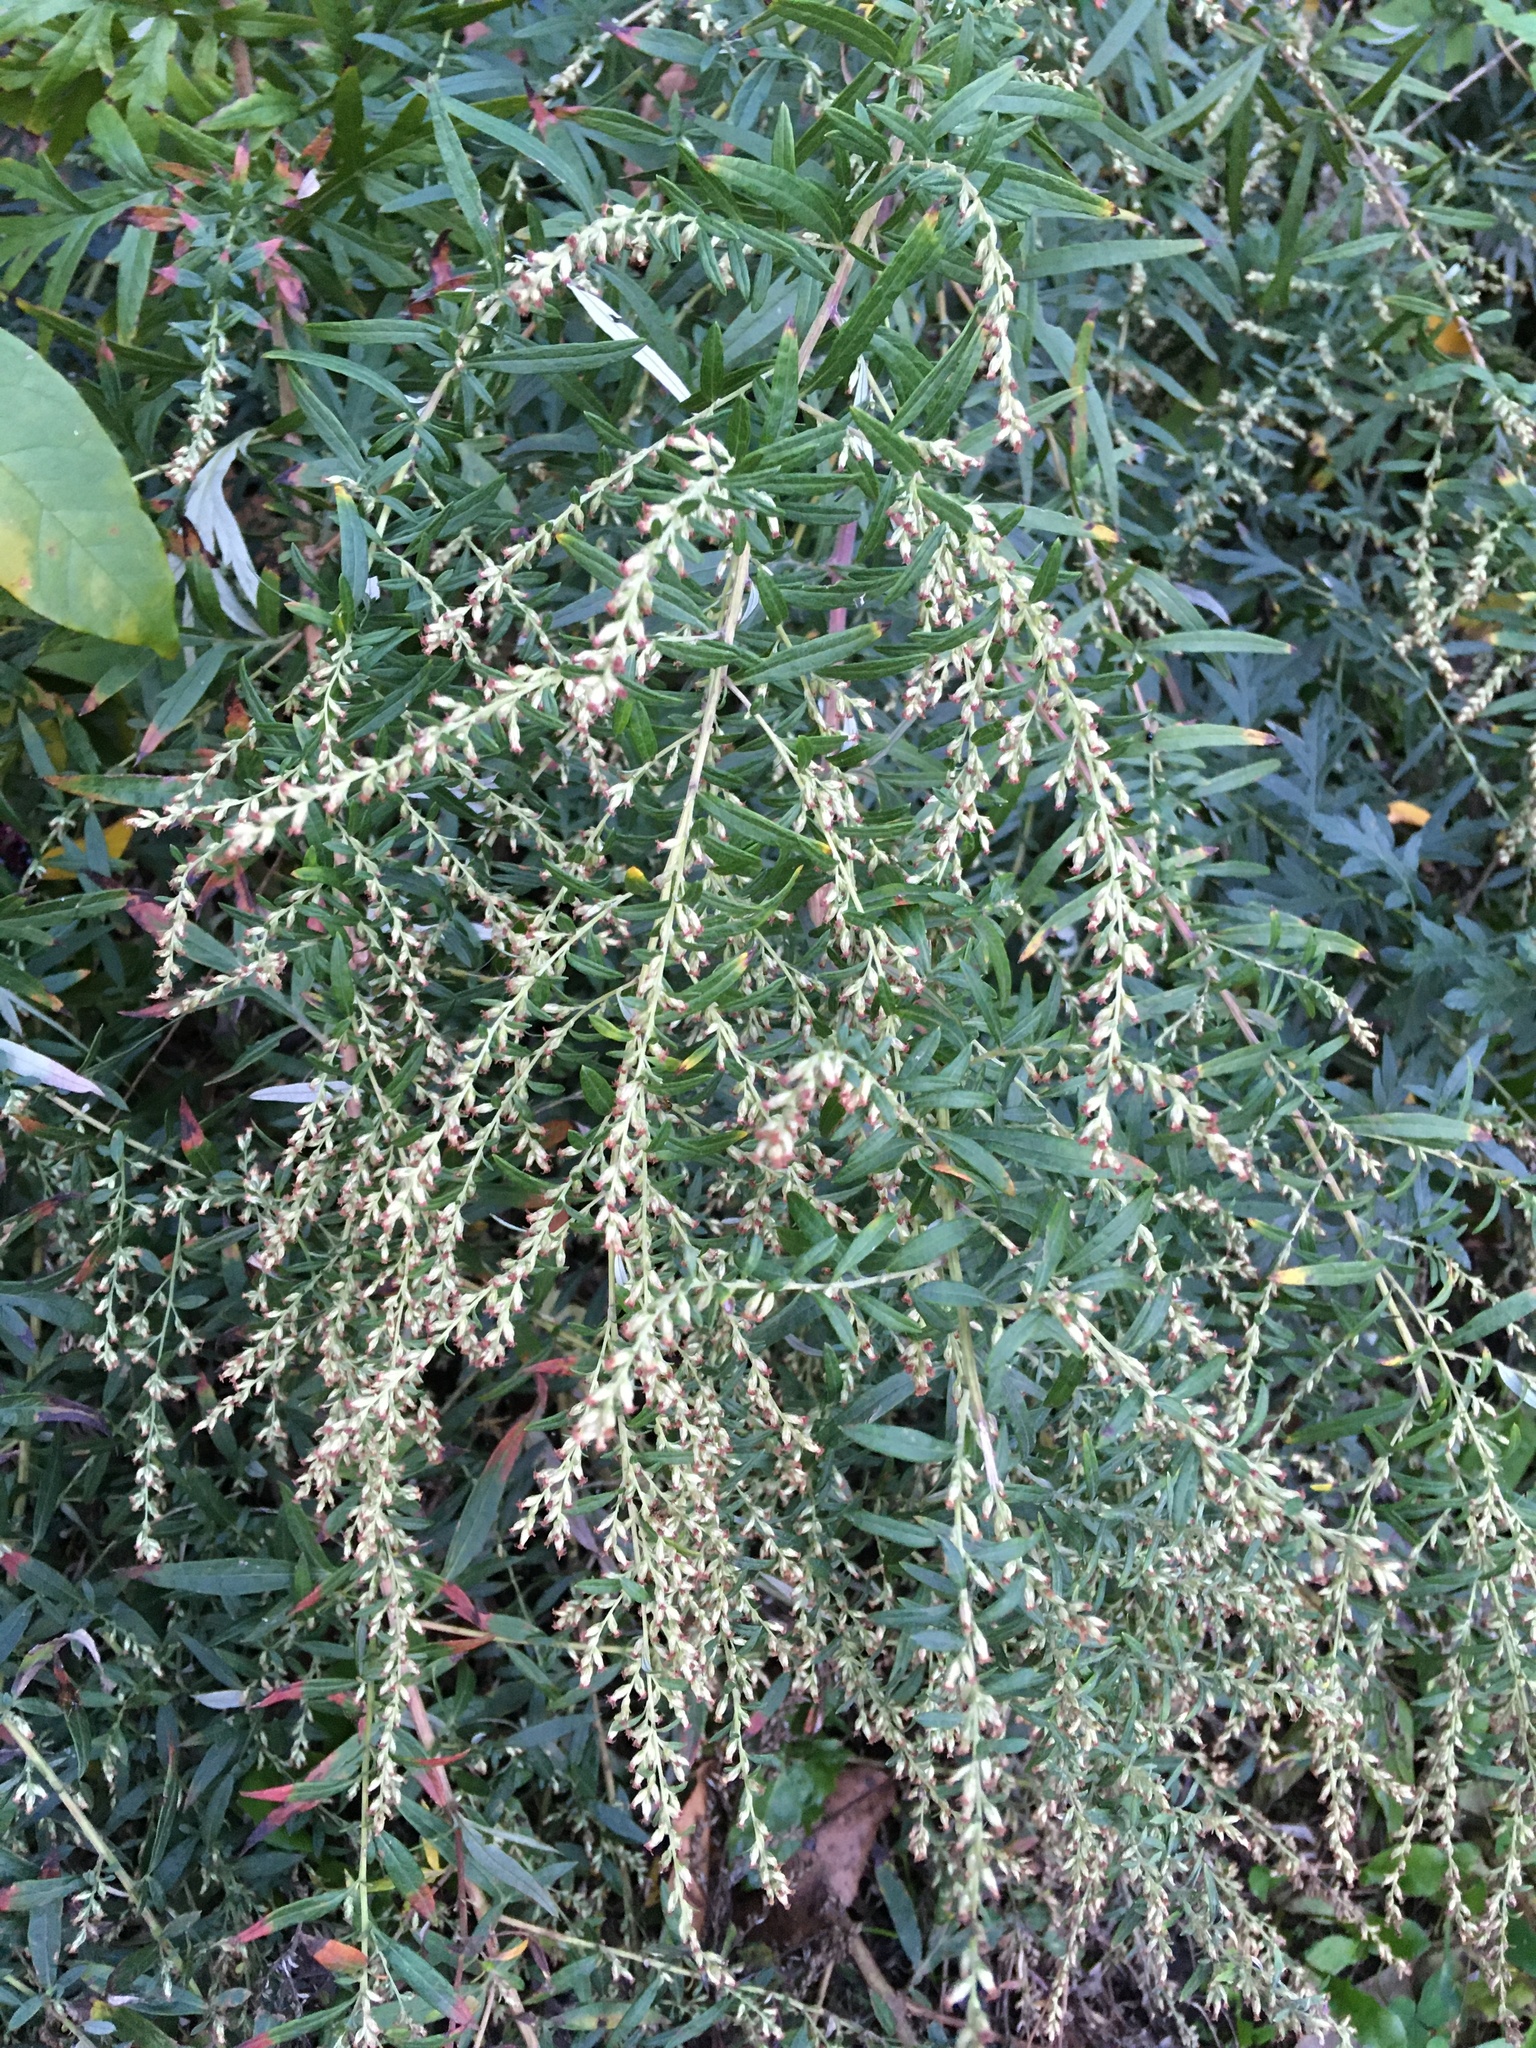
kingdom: Plantae
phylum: Tracheophyta
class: Magnoliopsida
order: Asterales
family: Asteraceae
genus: Artemisia
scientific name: Artemisia vulgaris
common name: Mugwort
